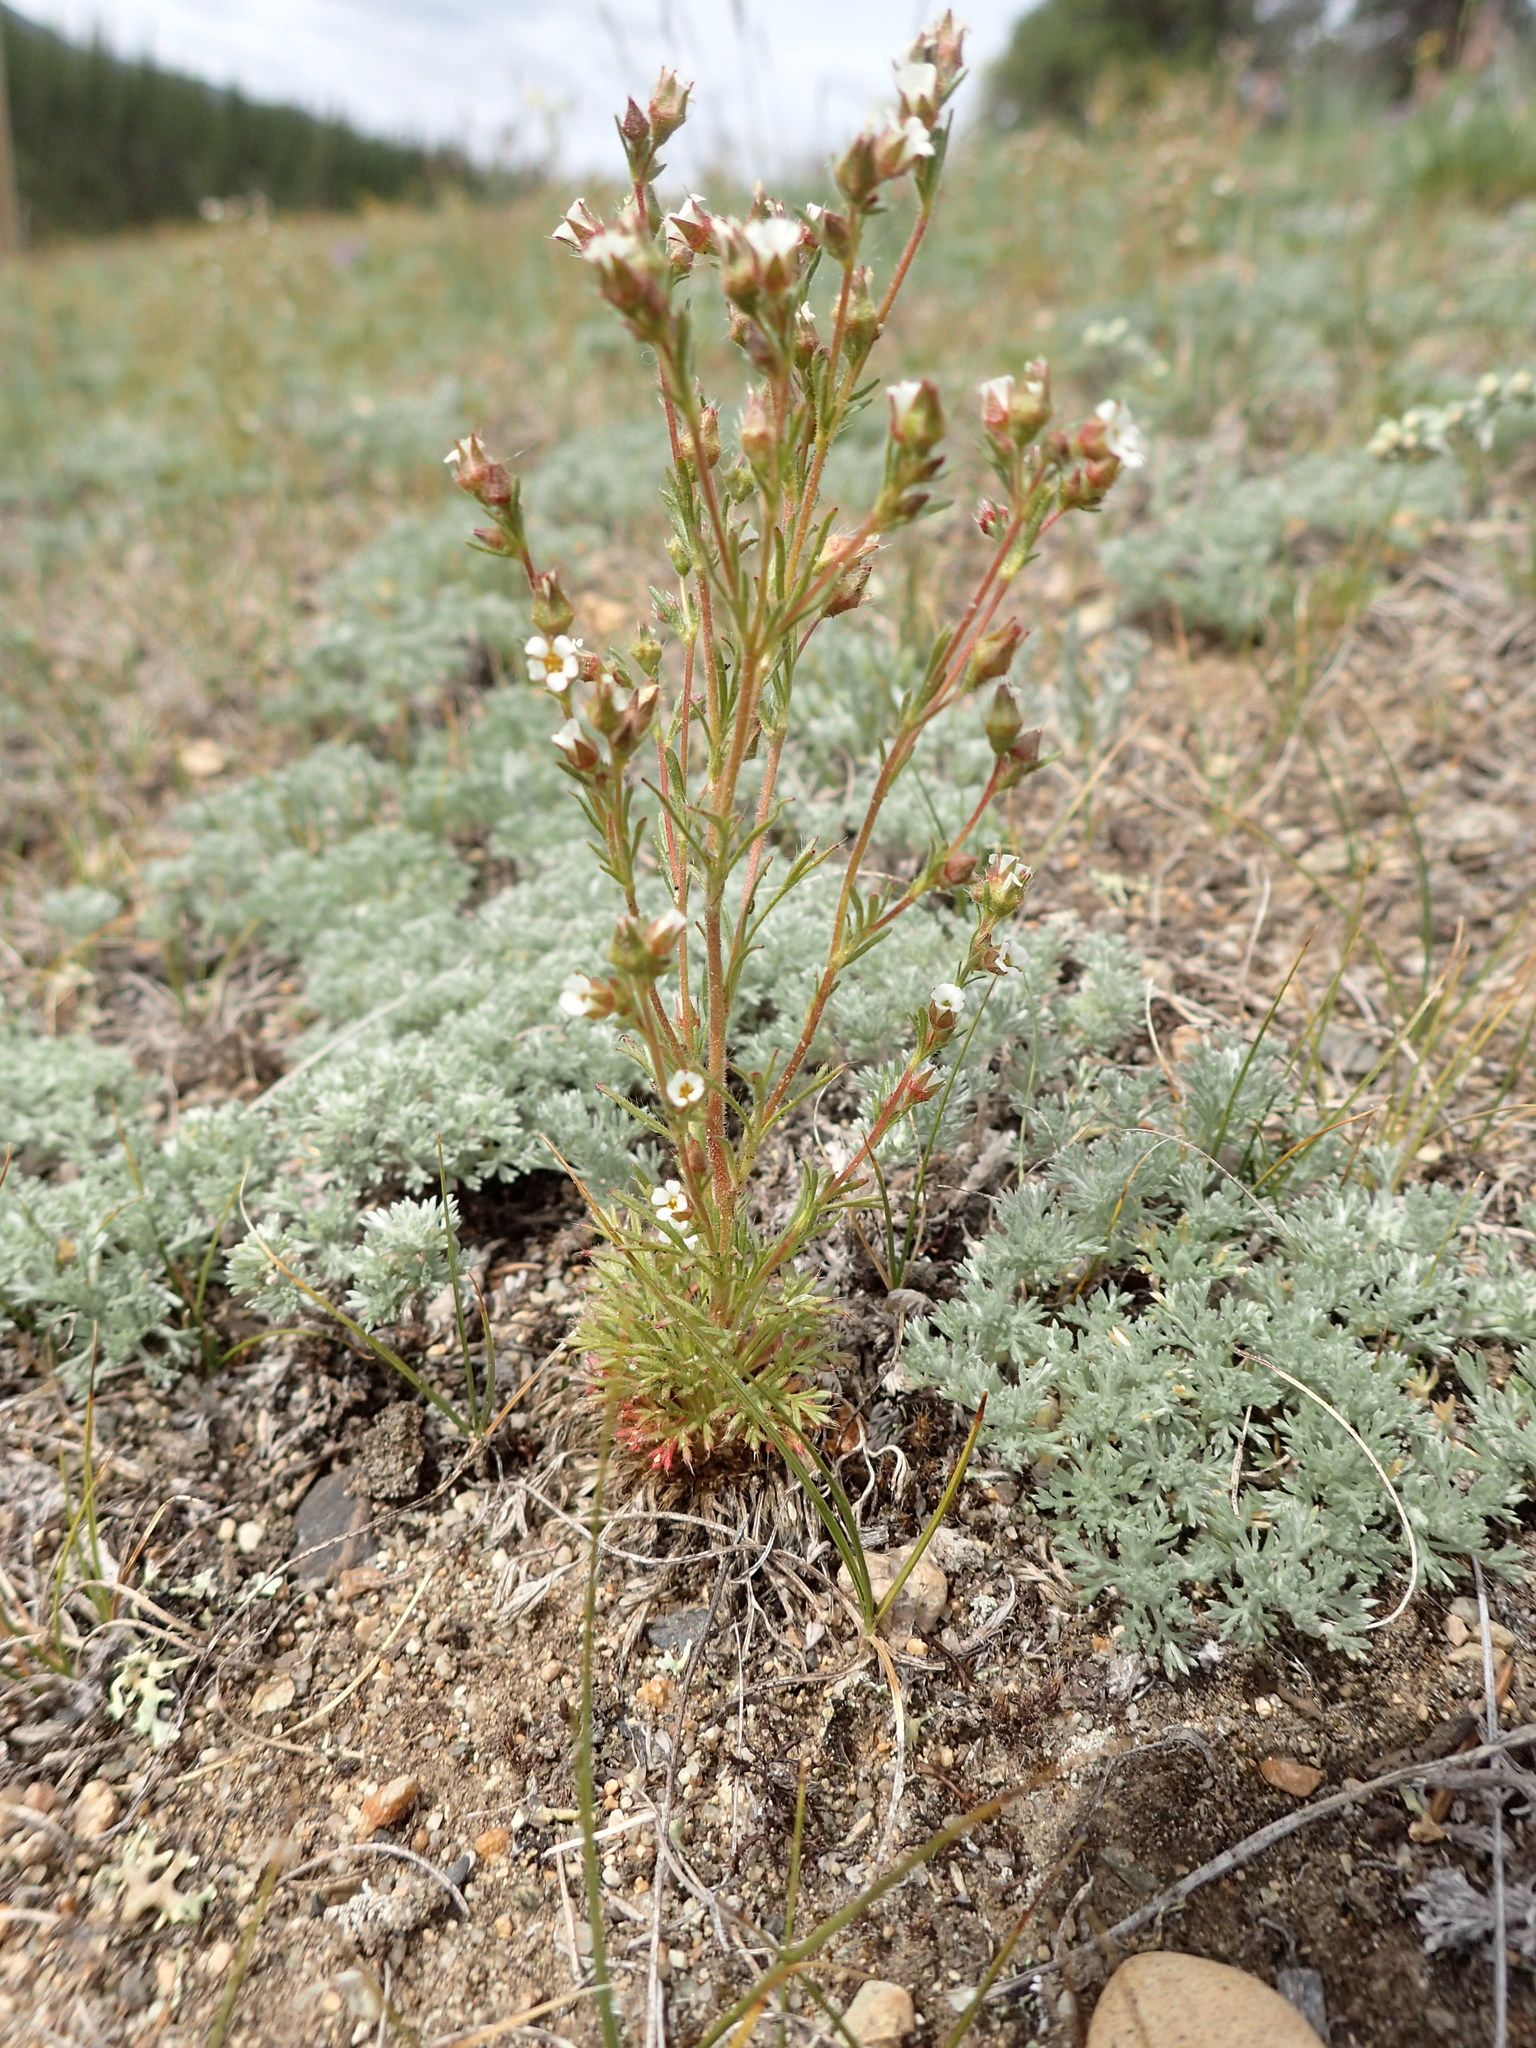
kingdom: Plantae
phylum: Tracheophyta
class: Magnoliopsida
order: Rosales
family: Rosaceae
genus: Chamaerhodos
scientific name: Chamaerhodos erecta
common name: American chamaerhodos
